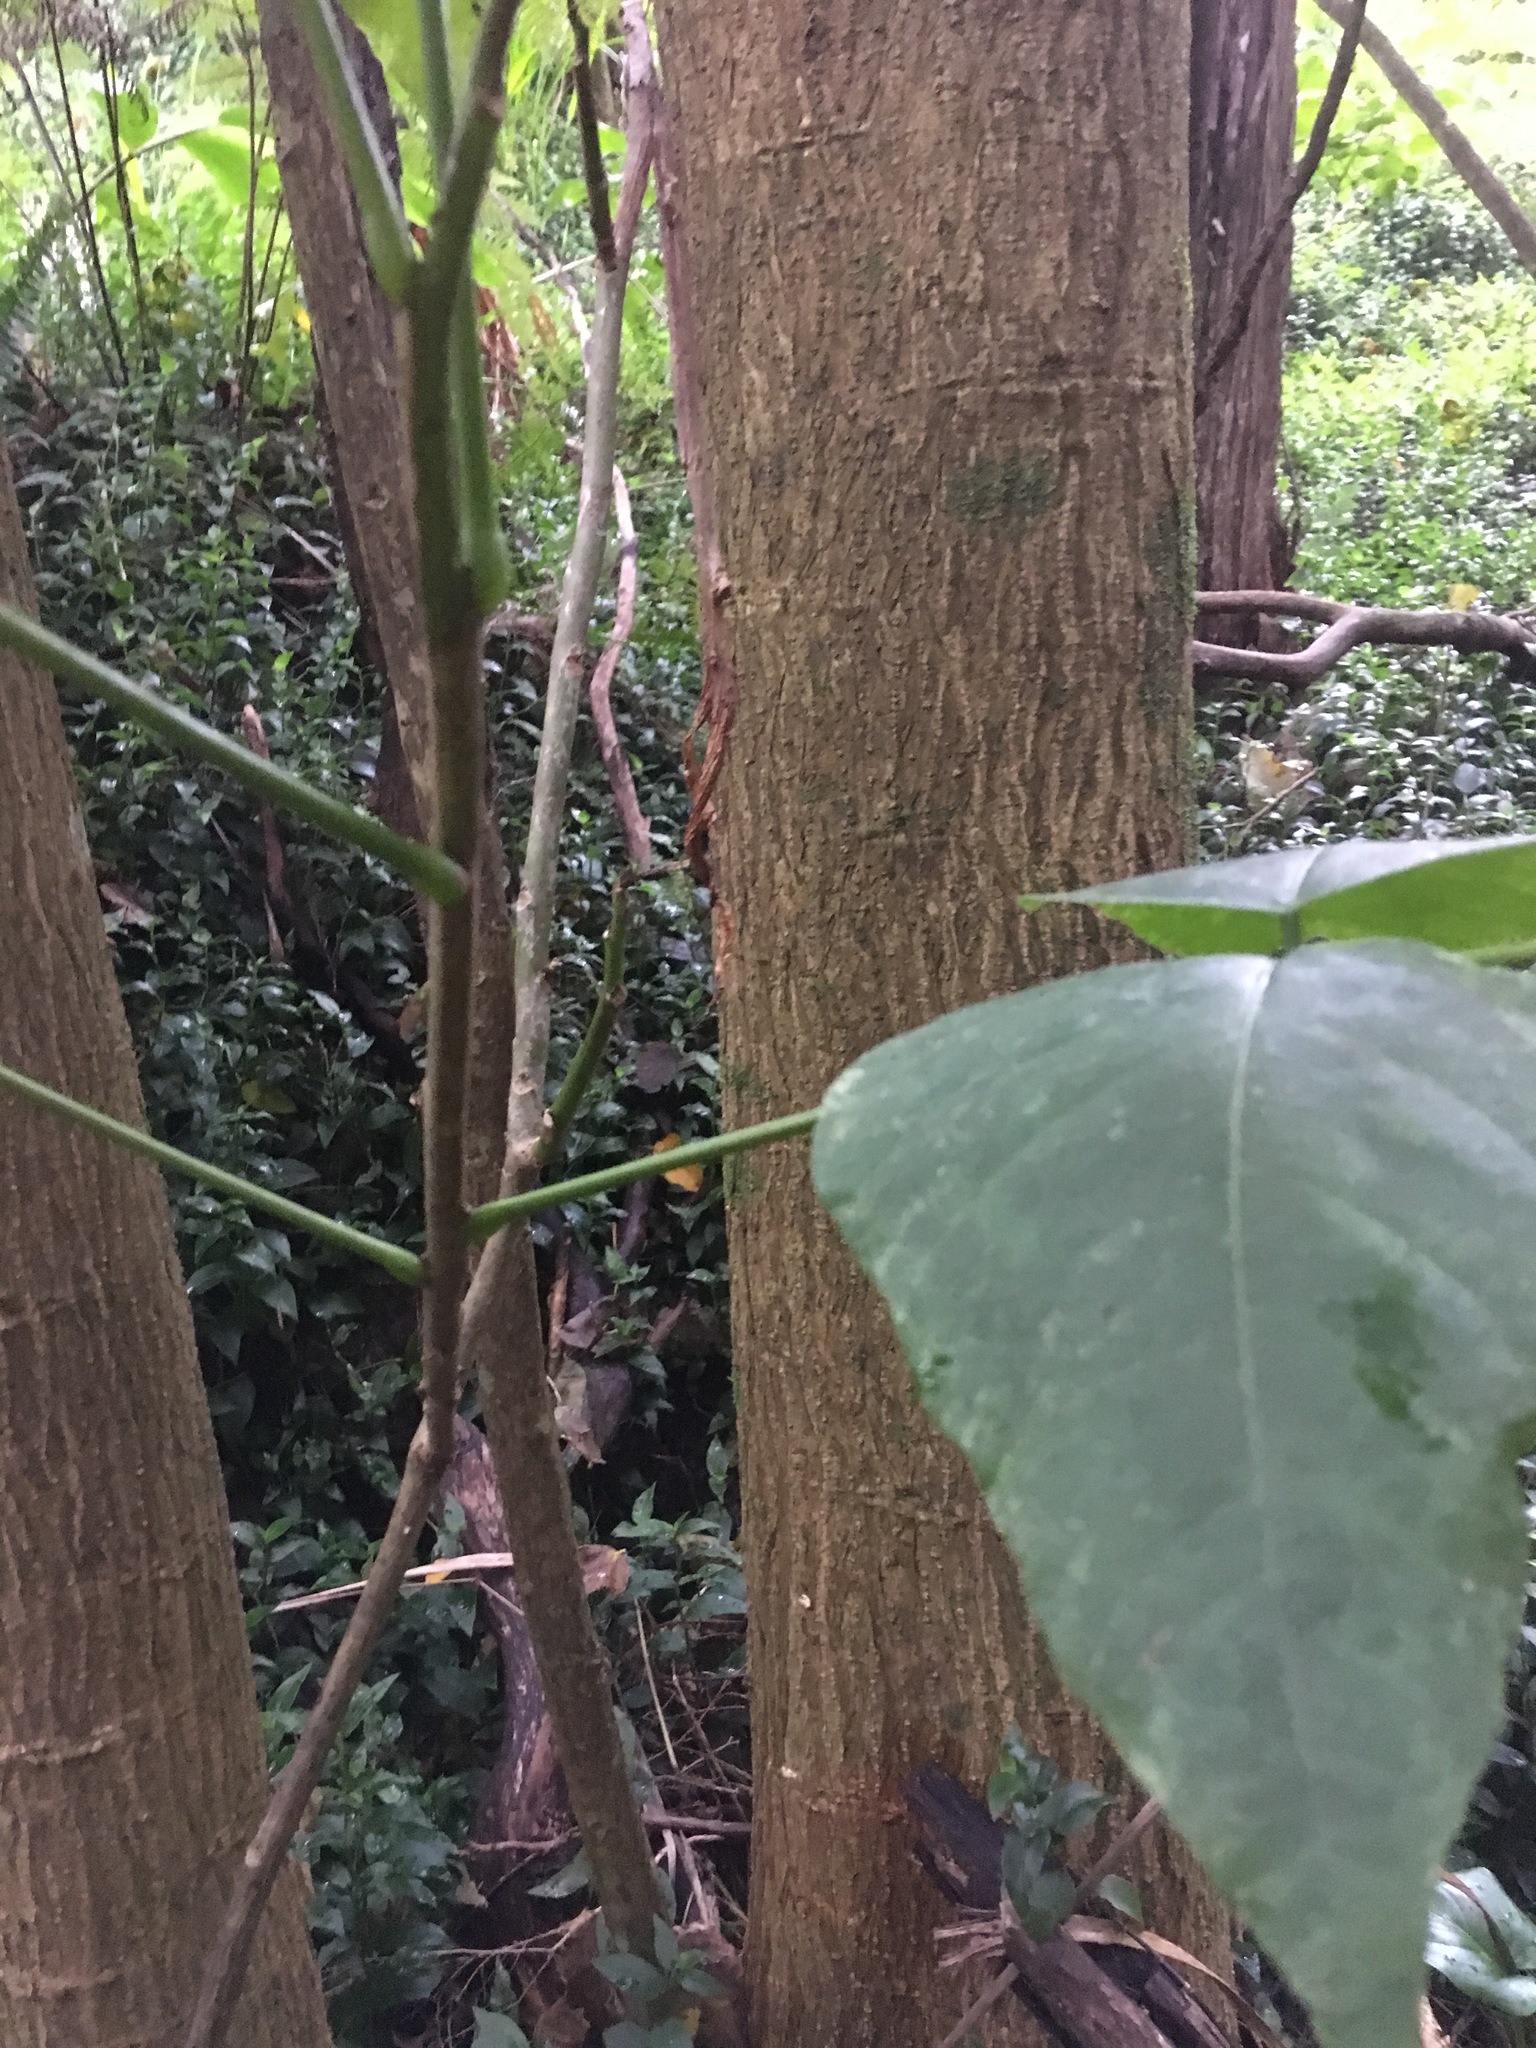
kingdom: Plantae
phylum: Tracheophyta
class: Magnoliopsida
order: Fabales
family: Fabaceae
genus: Erythrina
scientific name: Erythrina sykesii
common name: Coraltree
